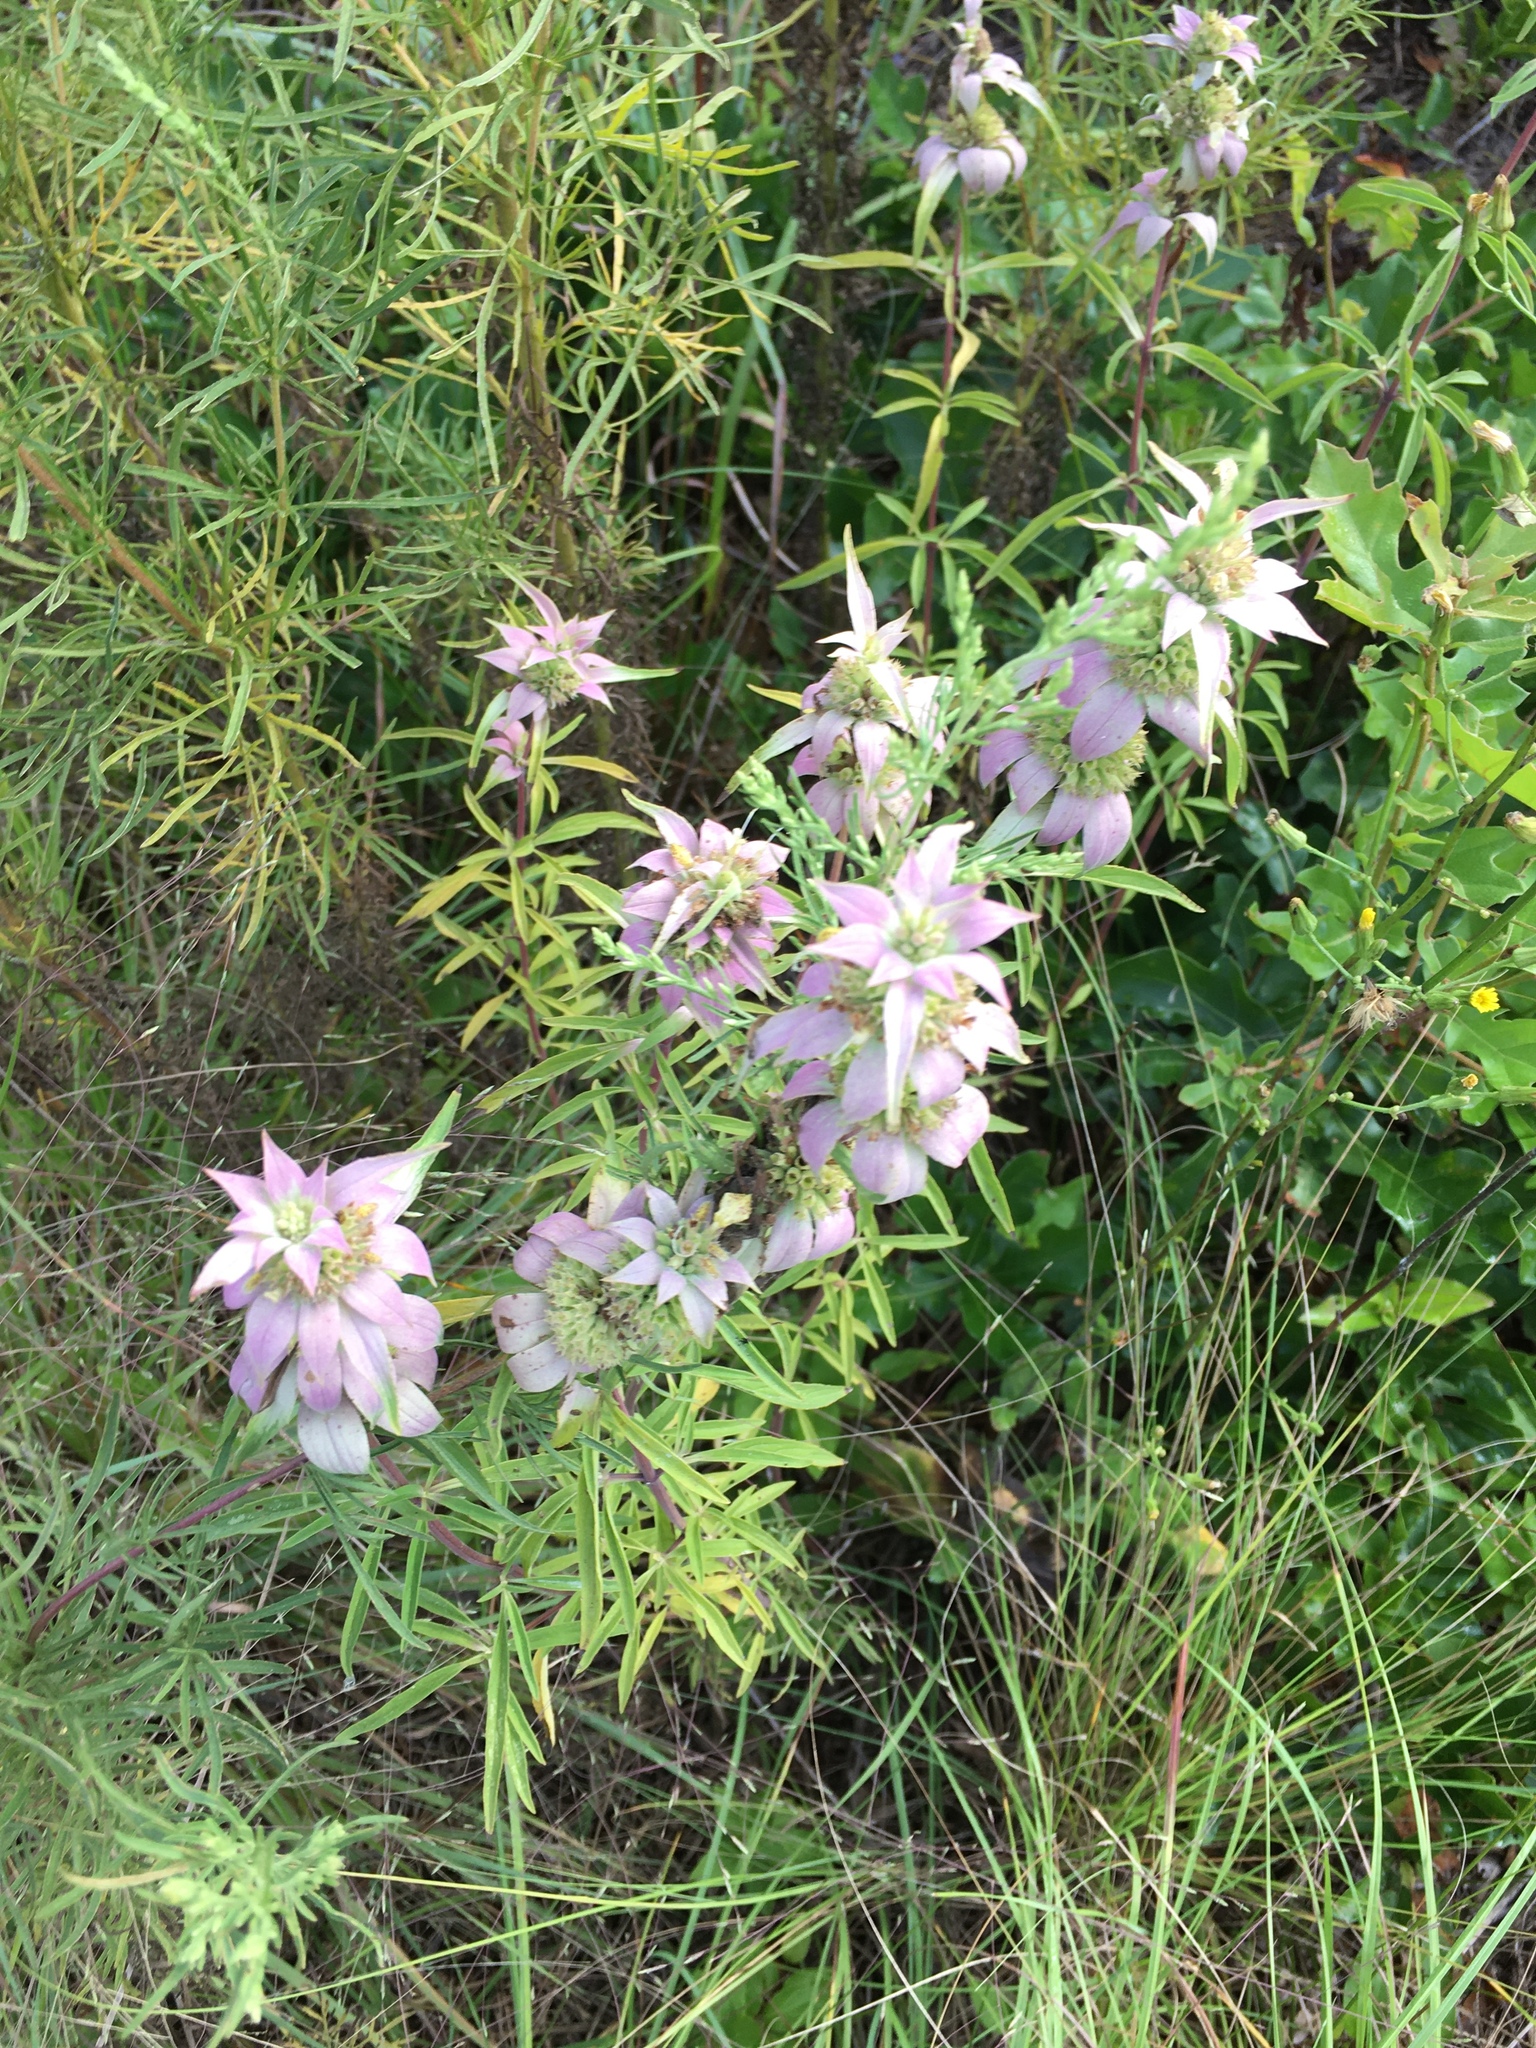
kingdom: Plantae
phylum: Tracheophyta
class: Magnoliopsida
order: Lamiales
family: Lamiaceae
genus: Monarda
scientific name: Monarda punctata
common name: Dotted monarda
